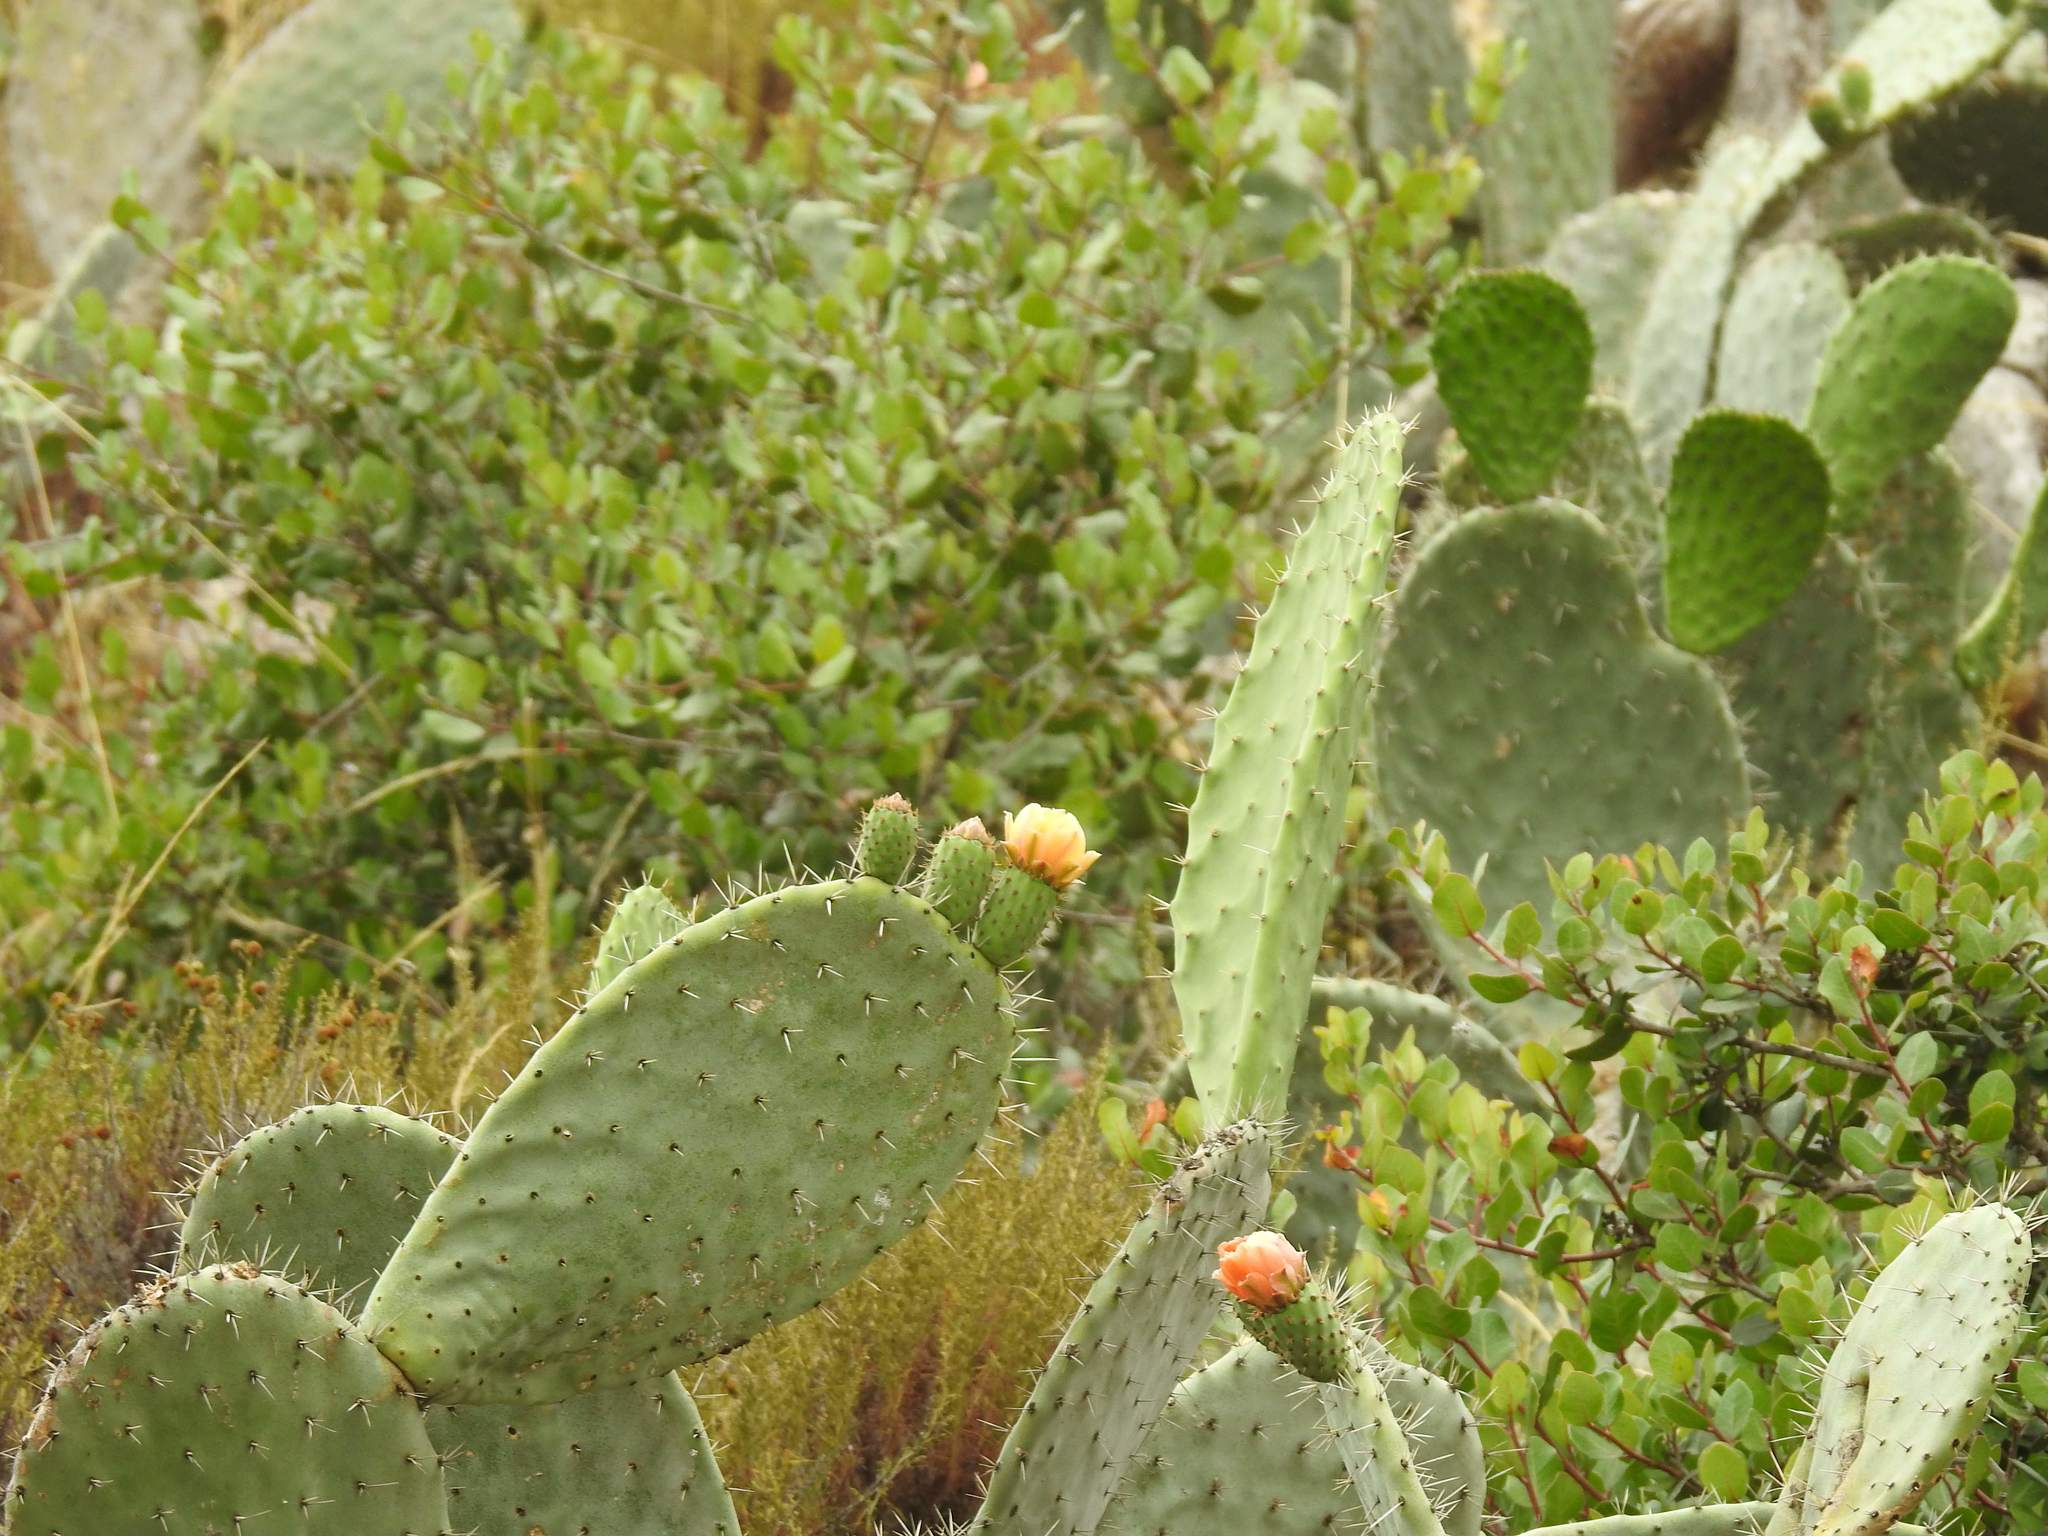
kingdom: Plantae
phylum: Tracheophyta
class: Magnoliopsida
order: Caryophyllales
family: Cactaceae
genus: Opuntia
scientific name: Opuntia ficus-indica
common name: Barbary fig
